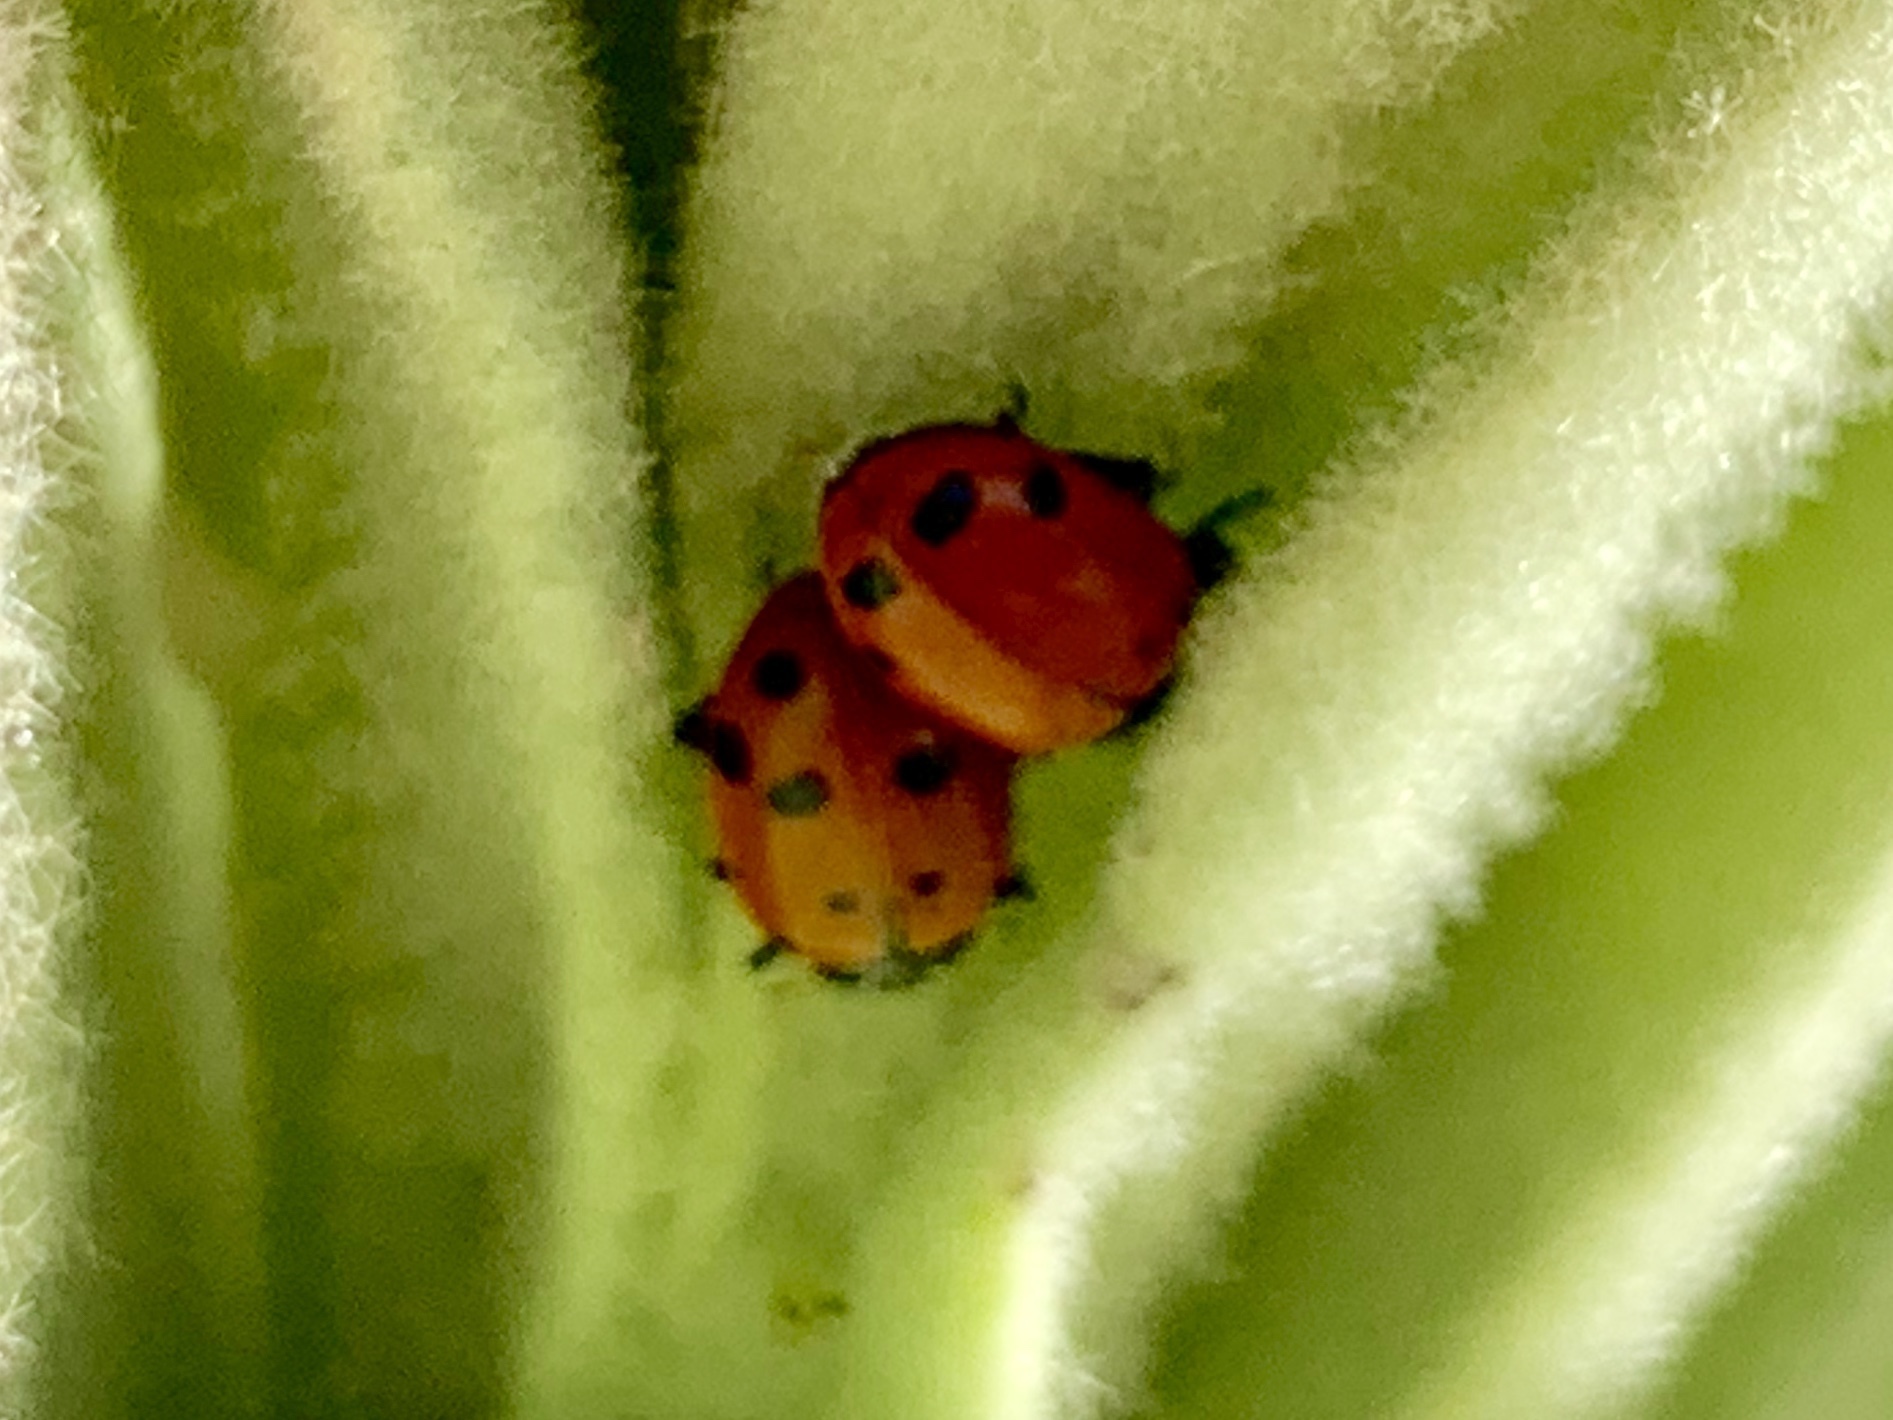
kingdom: Animalia
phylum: Arthropoda
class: Insecta
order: Coleoptera
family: Coccinellidae
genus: Hippodamia
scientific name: Hippodamia convergens
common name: Convergent lady beetle
